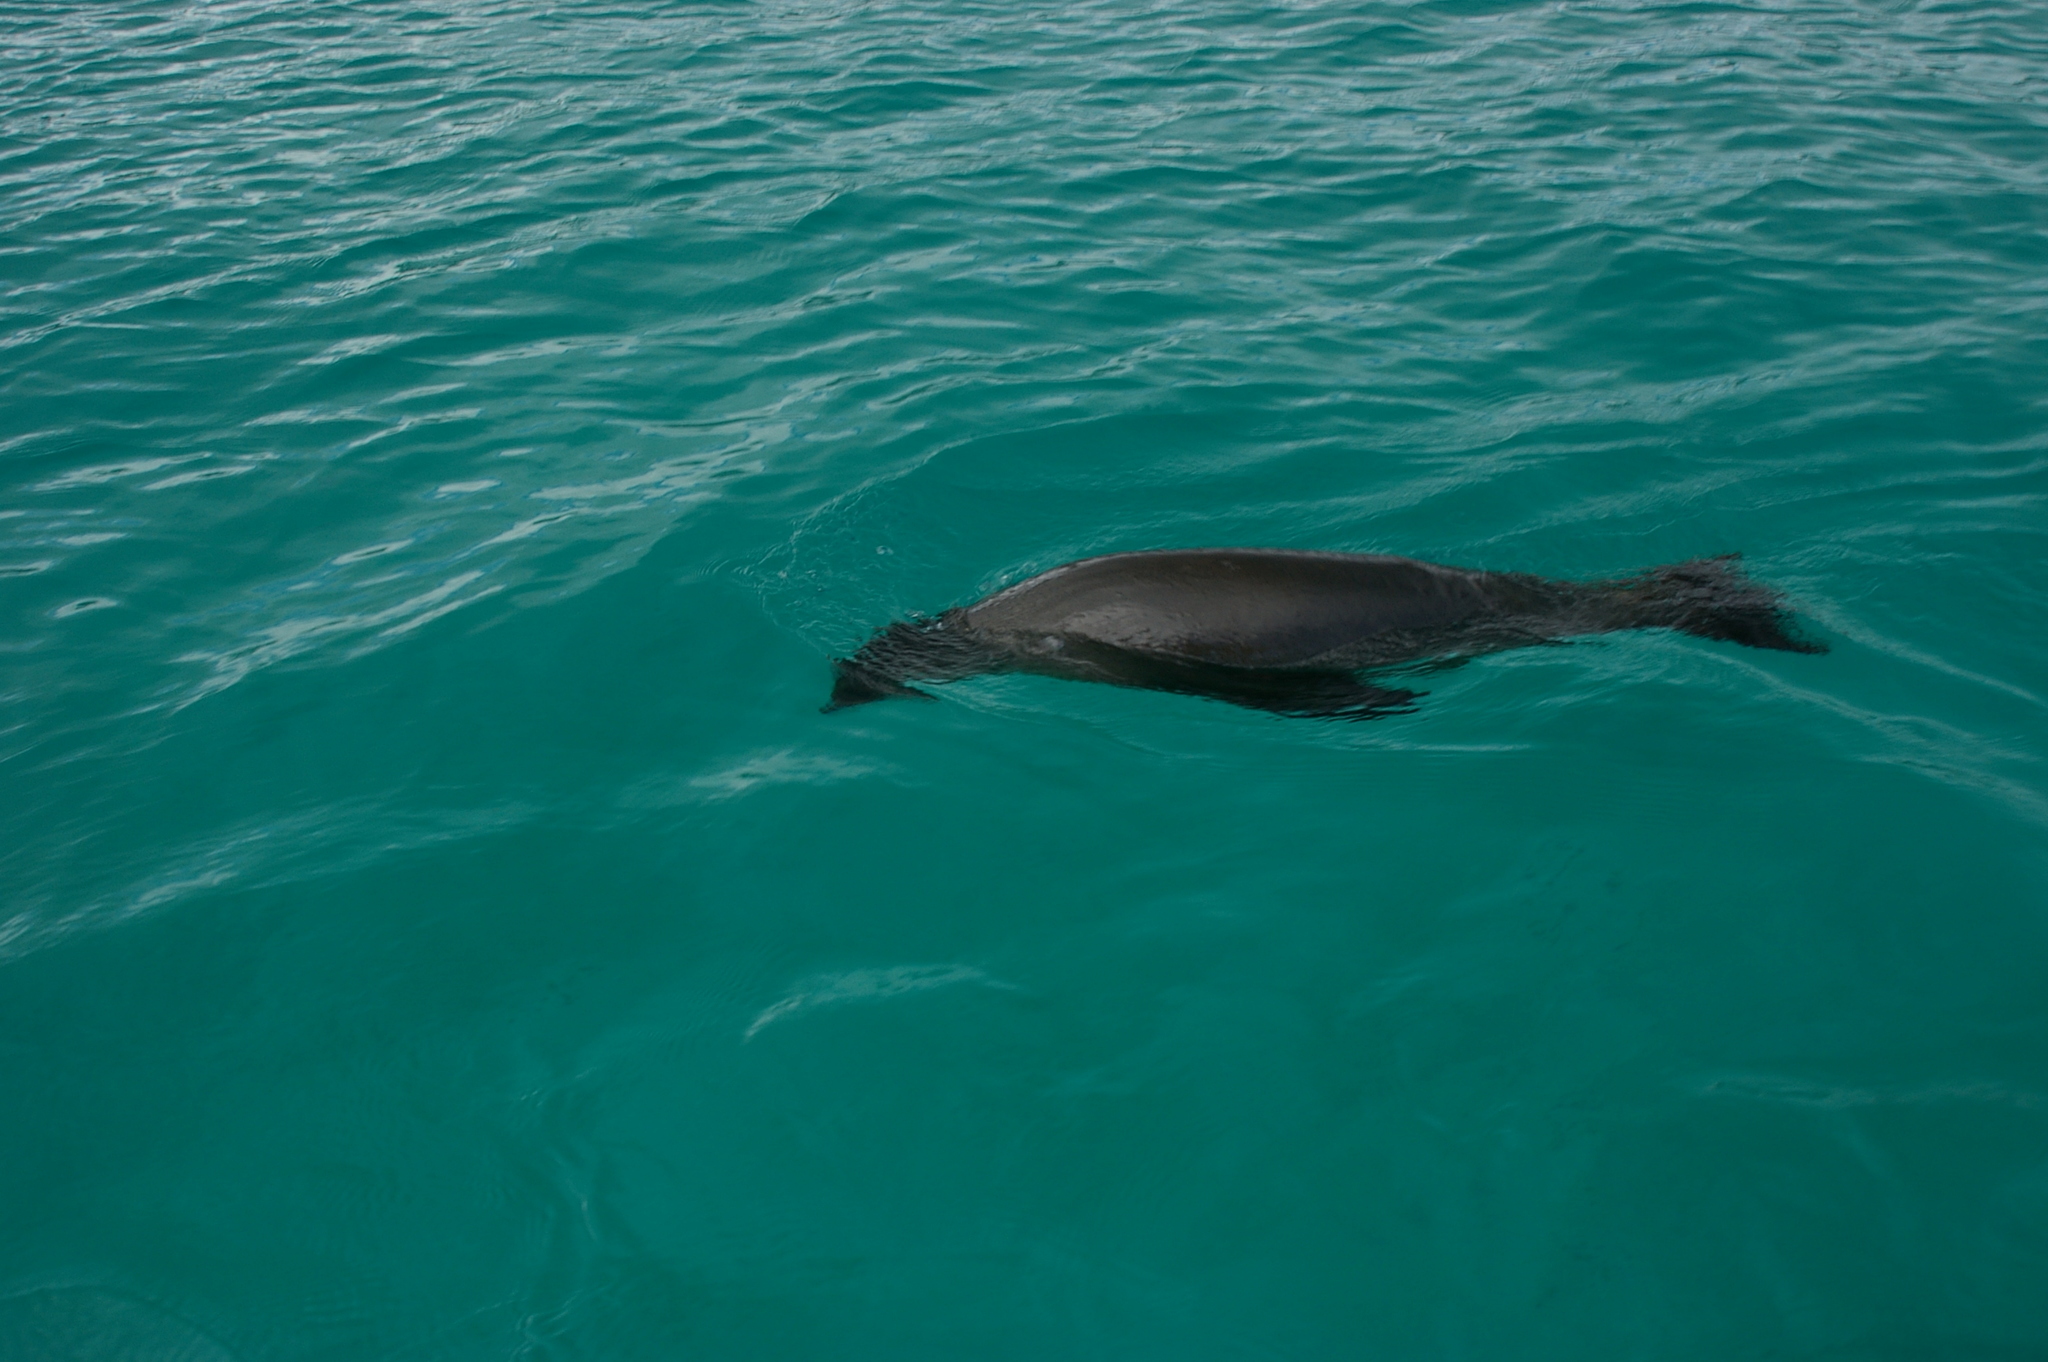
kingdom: Animalia
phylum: Chordata
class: Mammalia
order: Carnivora
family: Otariidae
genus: Zalophus
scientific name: Zalophus wollebaeki
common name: Galapagos sea lion
